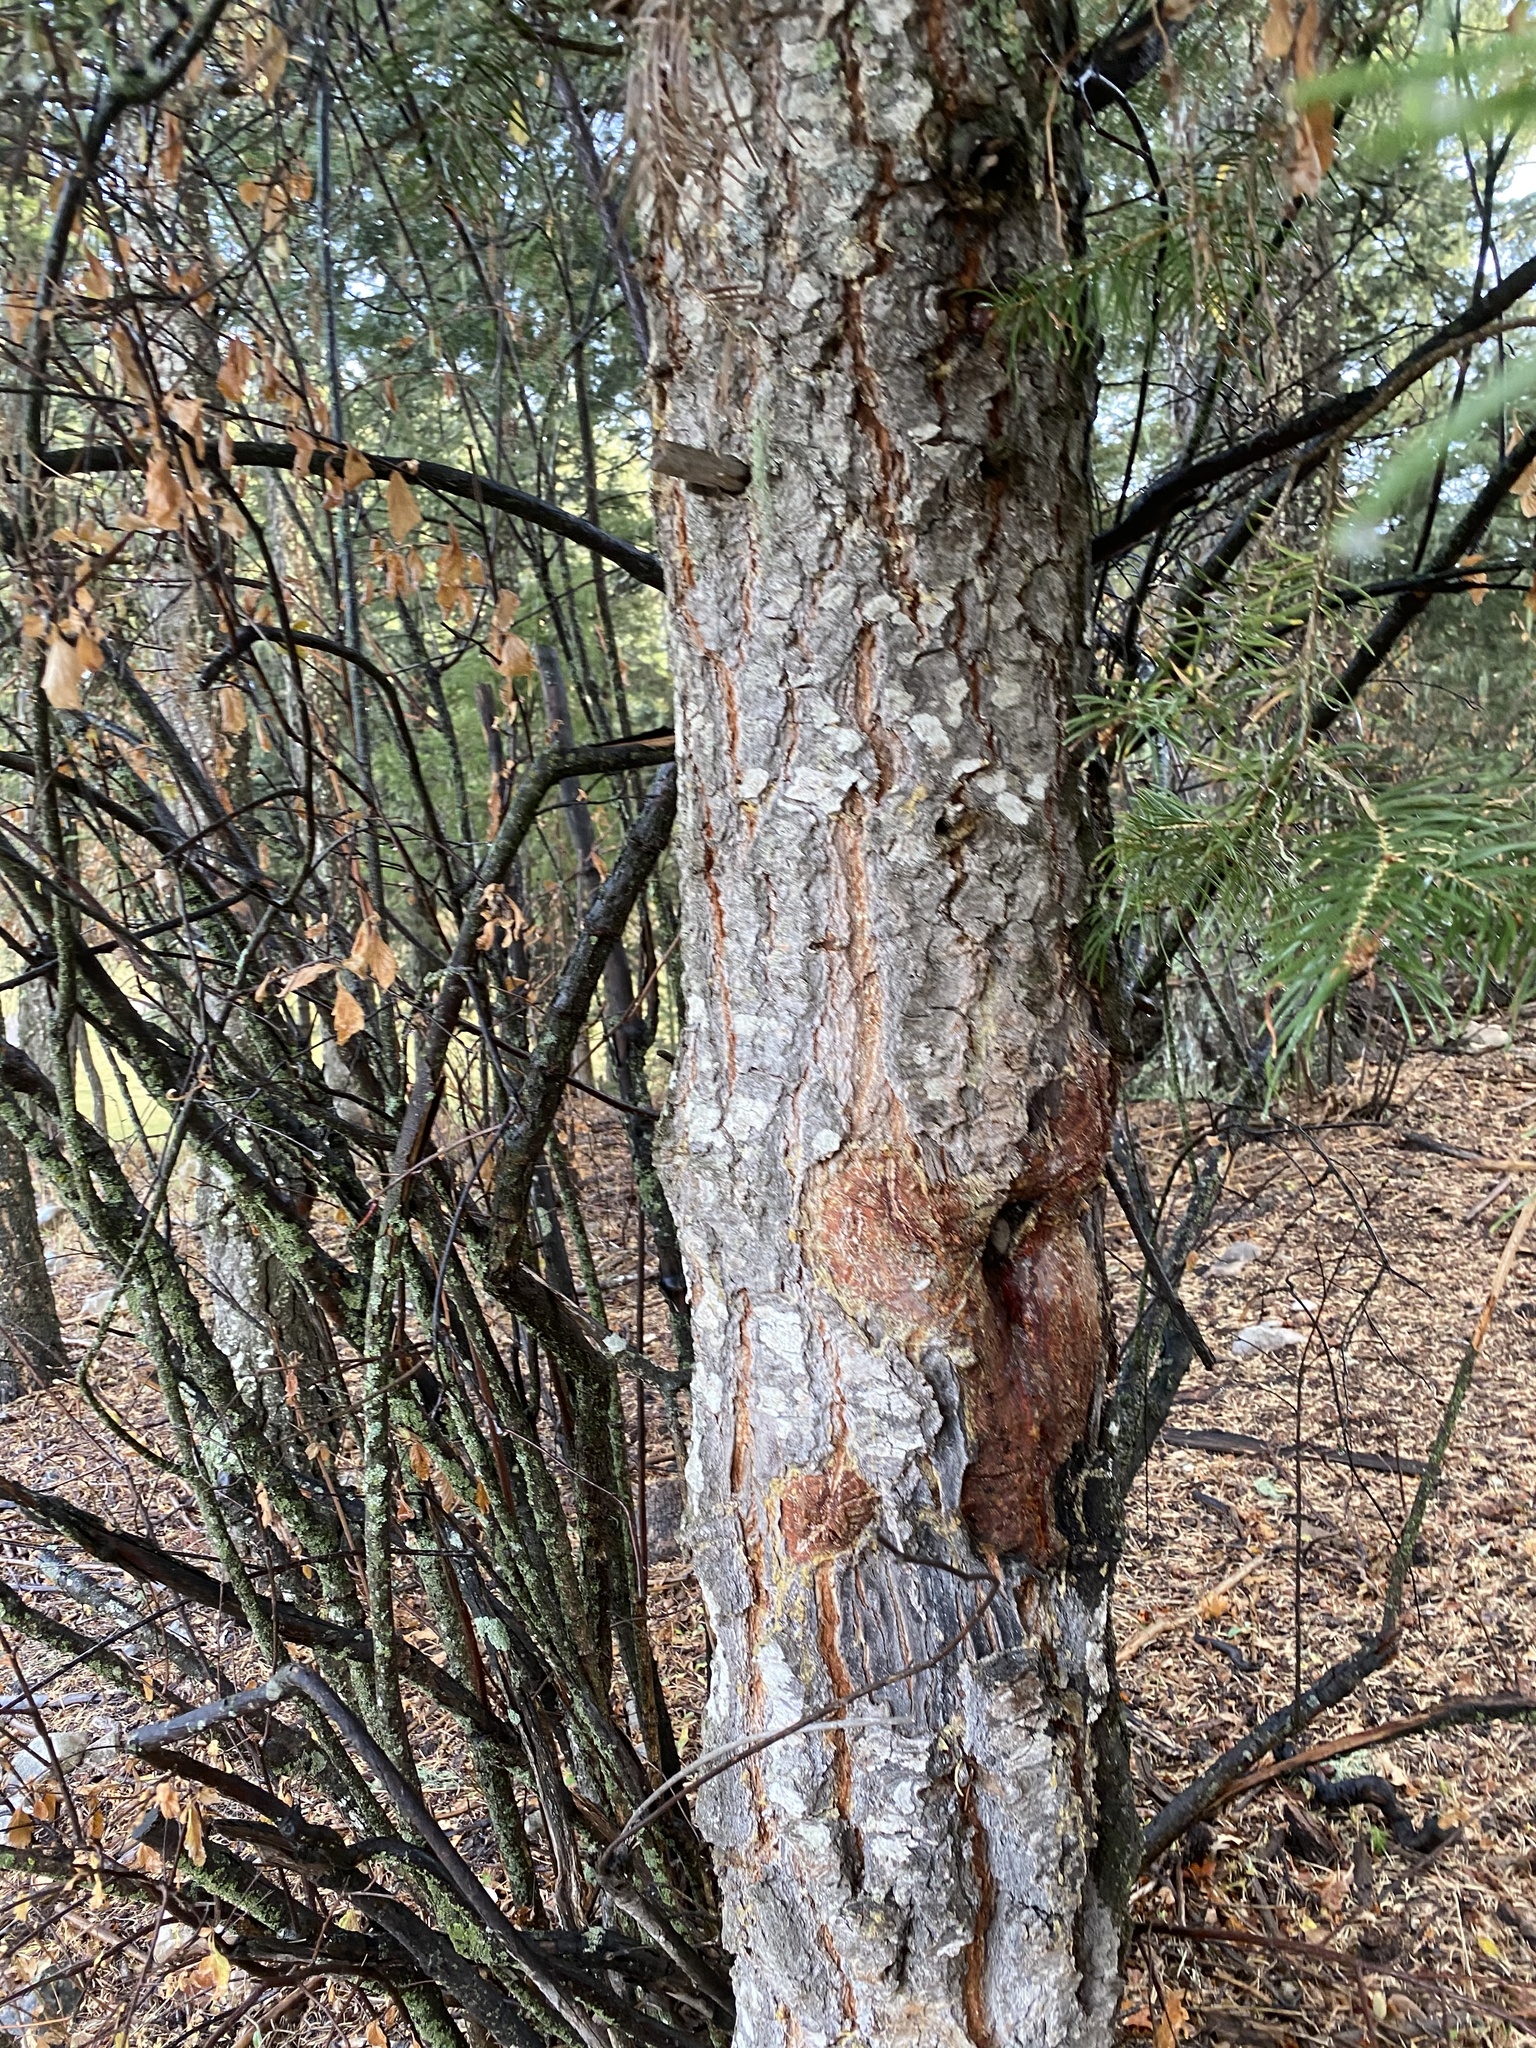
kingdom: Plantae
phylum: Tracheophyta
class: Pinopsida
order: Pinales
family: Pinaceae
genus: Abies
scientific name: Abies concolor
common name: Colorado fir
